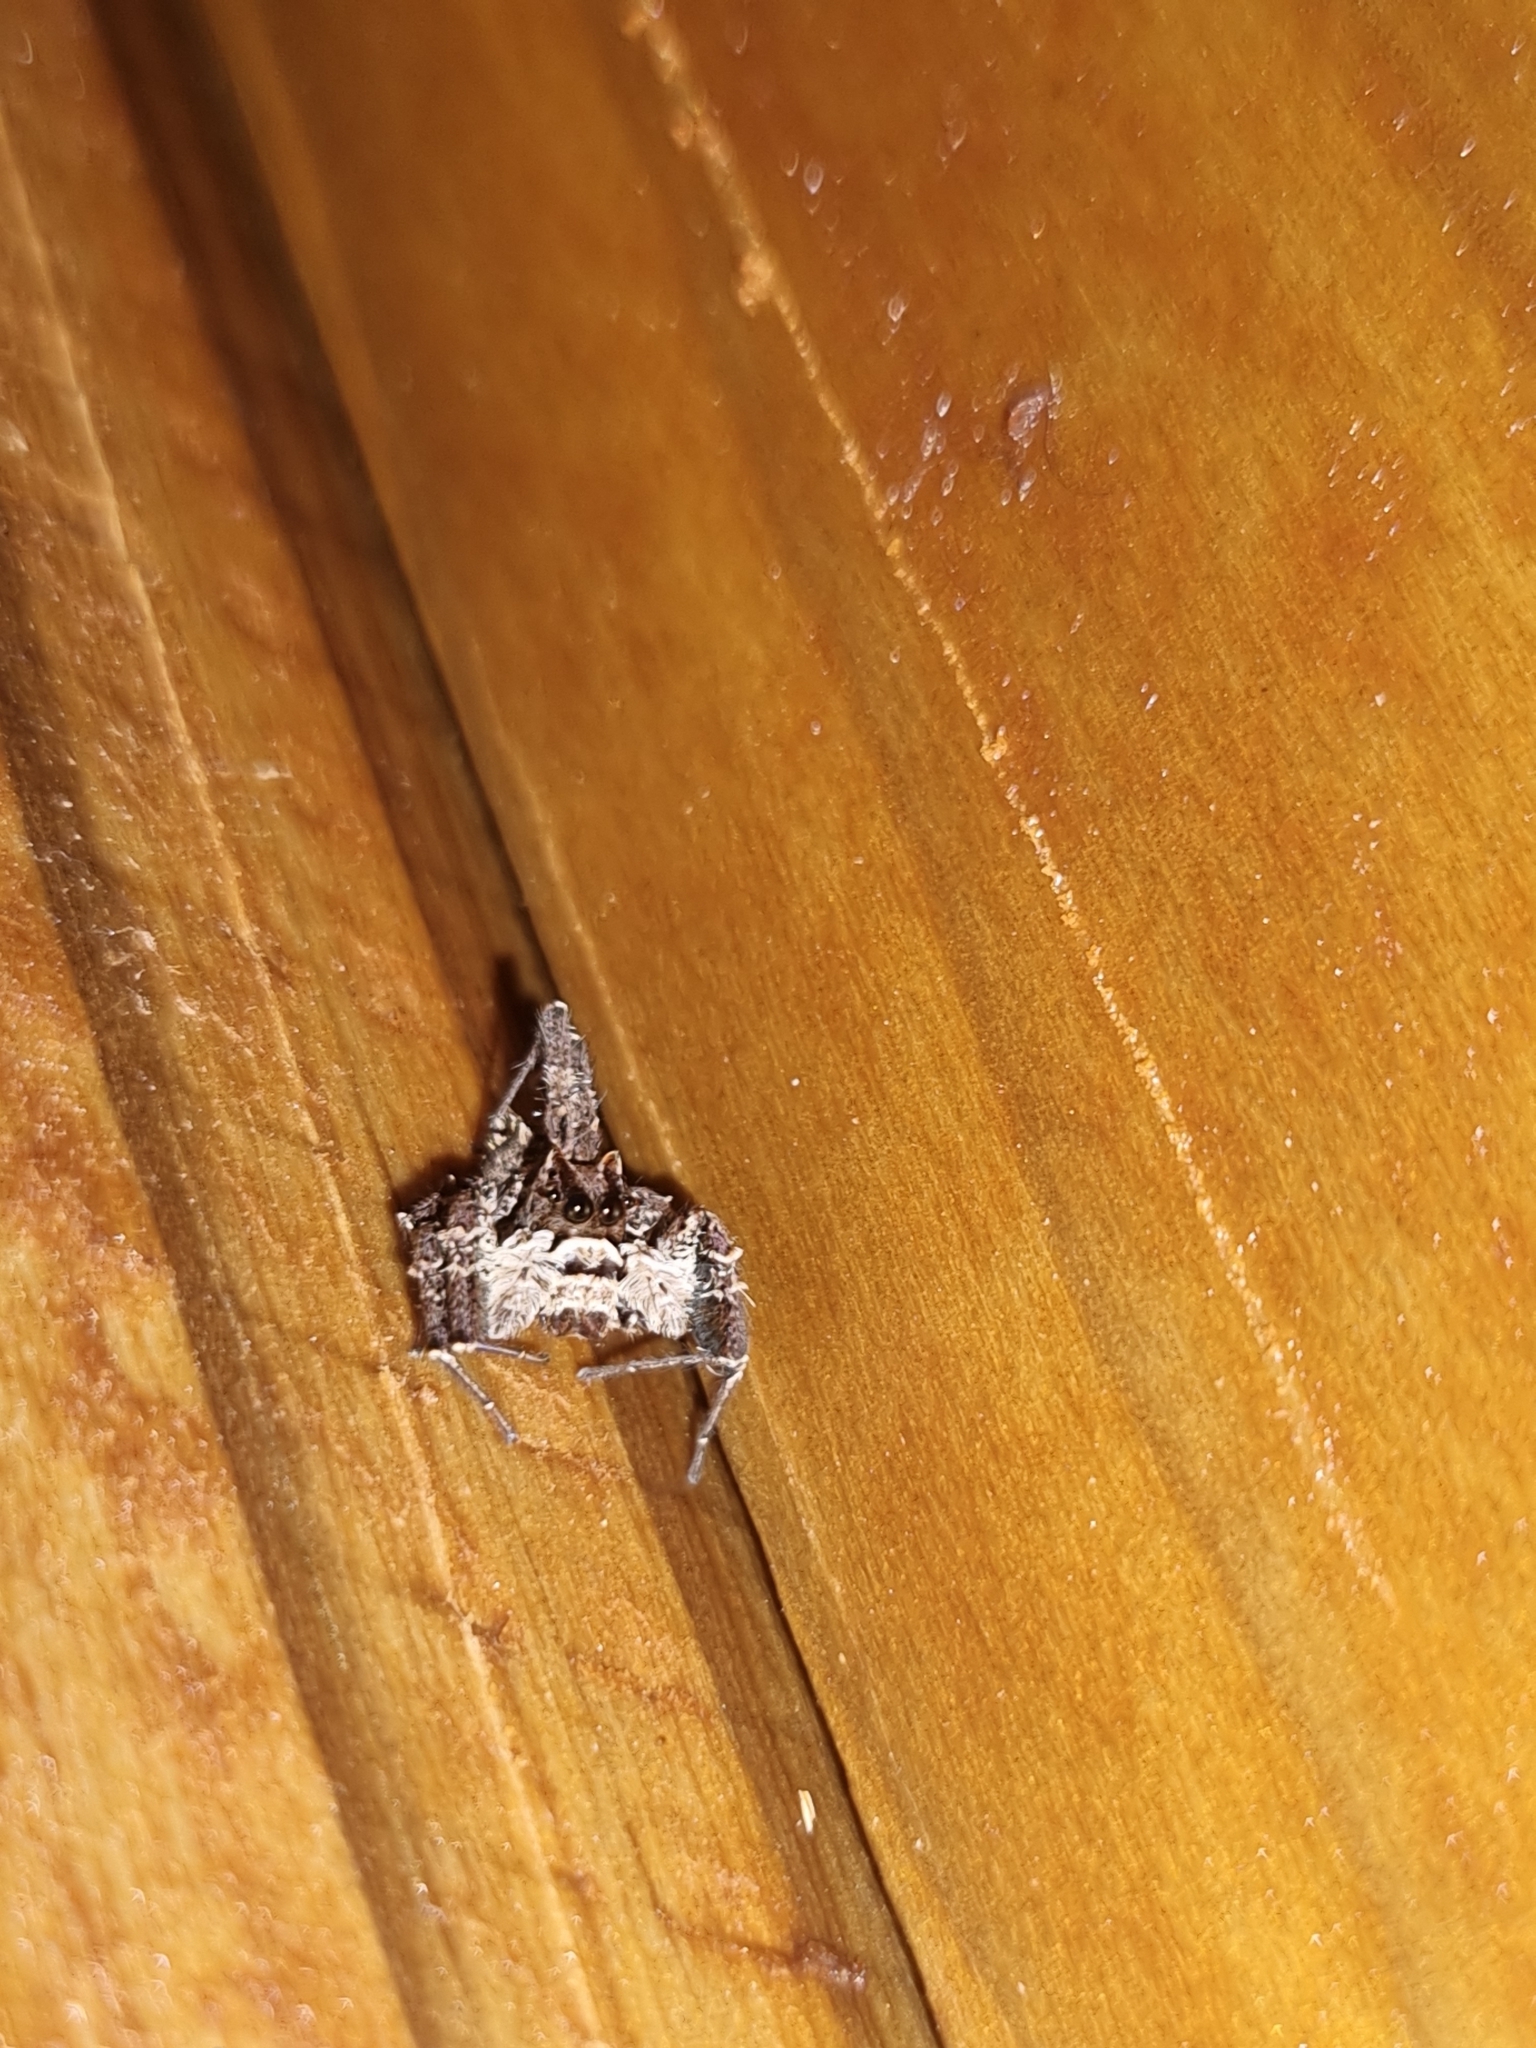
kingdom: Animalia
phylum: Arthropoda
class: Arachnida
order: Araneae
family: Salticidae
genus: Portia
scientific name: Portia schultzi
